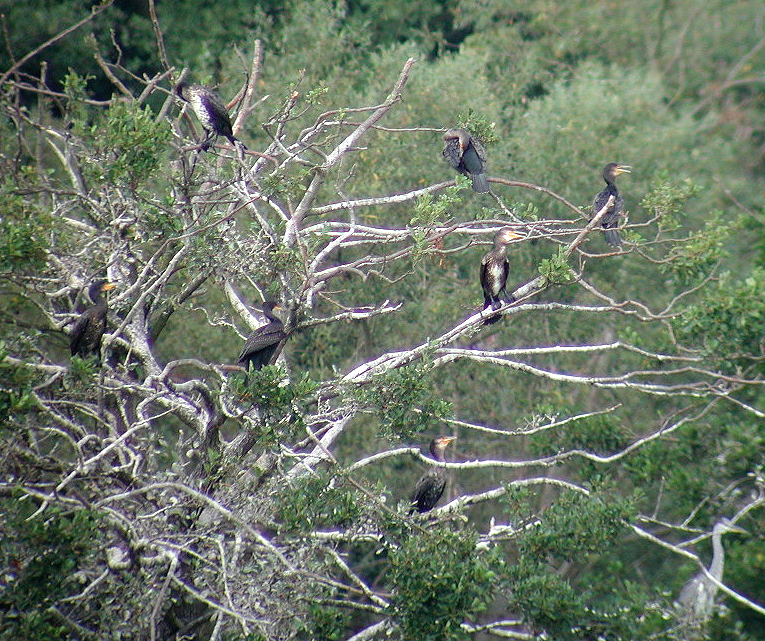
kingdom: Animalia
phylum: Chordata
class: Aves
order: Suliformes
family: Phalacrocoracidae
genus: Phalacrocorax
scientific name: Phalacrocorax carbo
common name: Great cormorant
